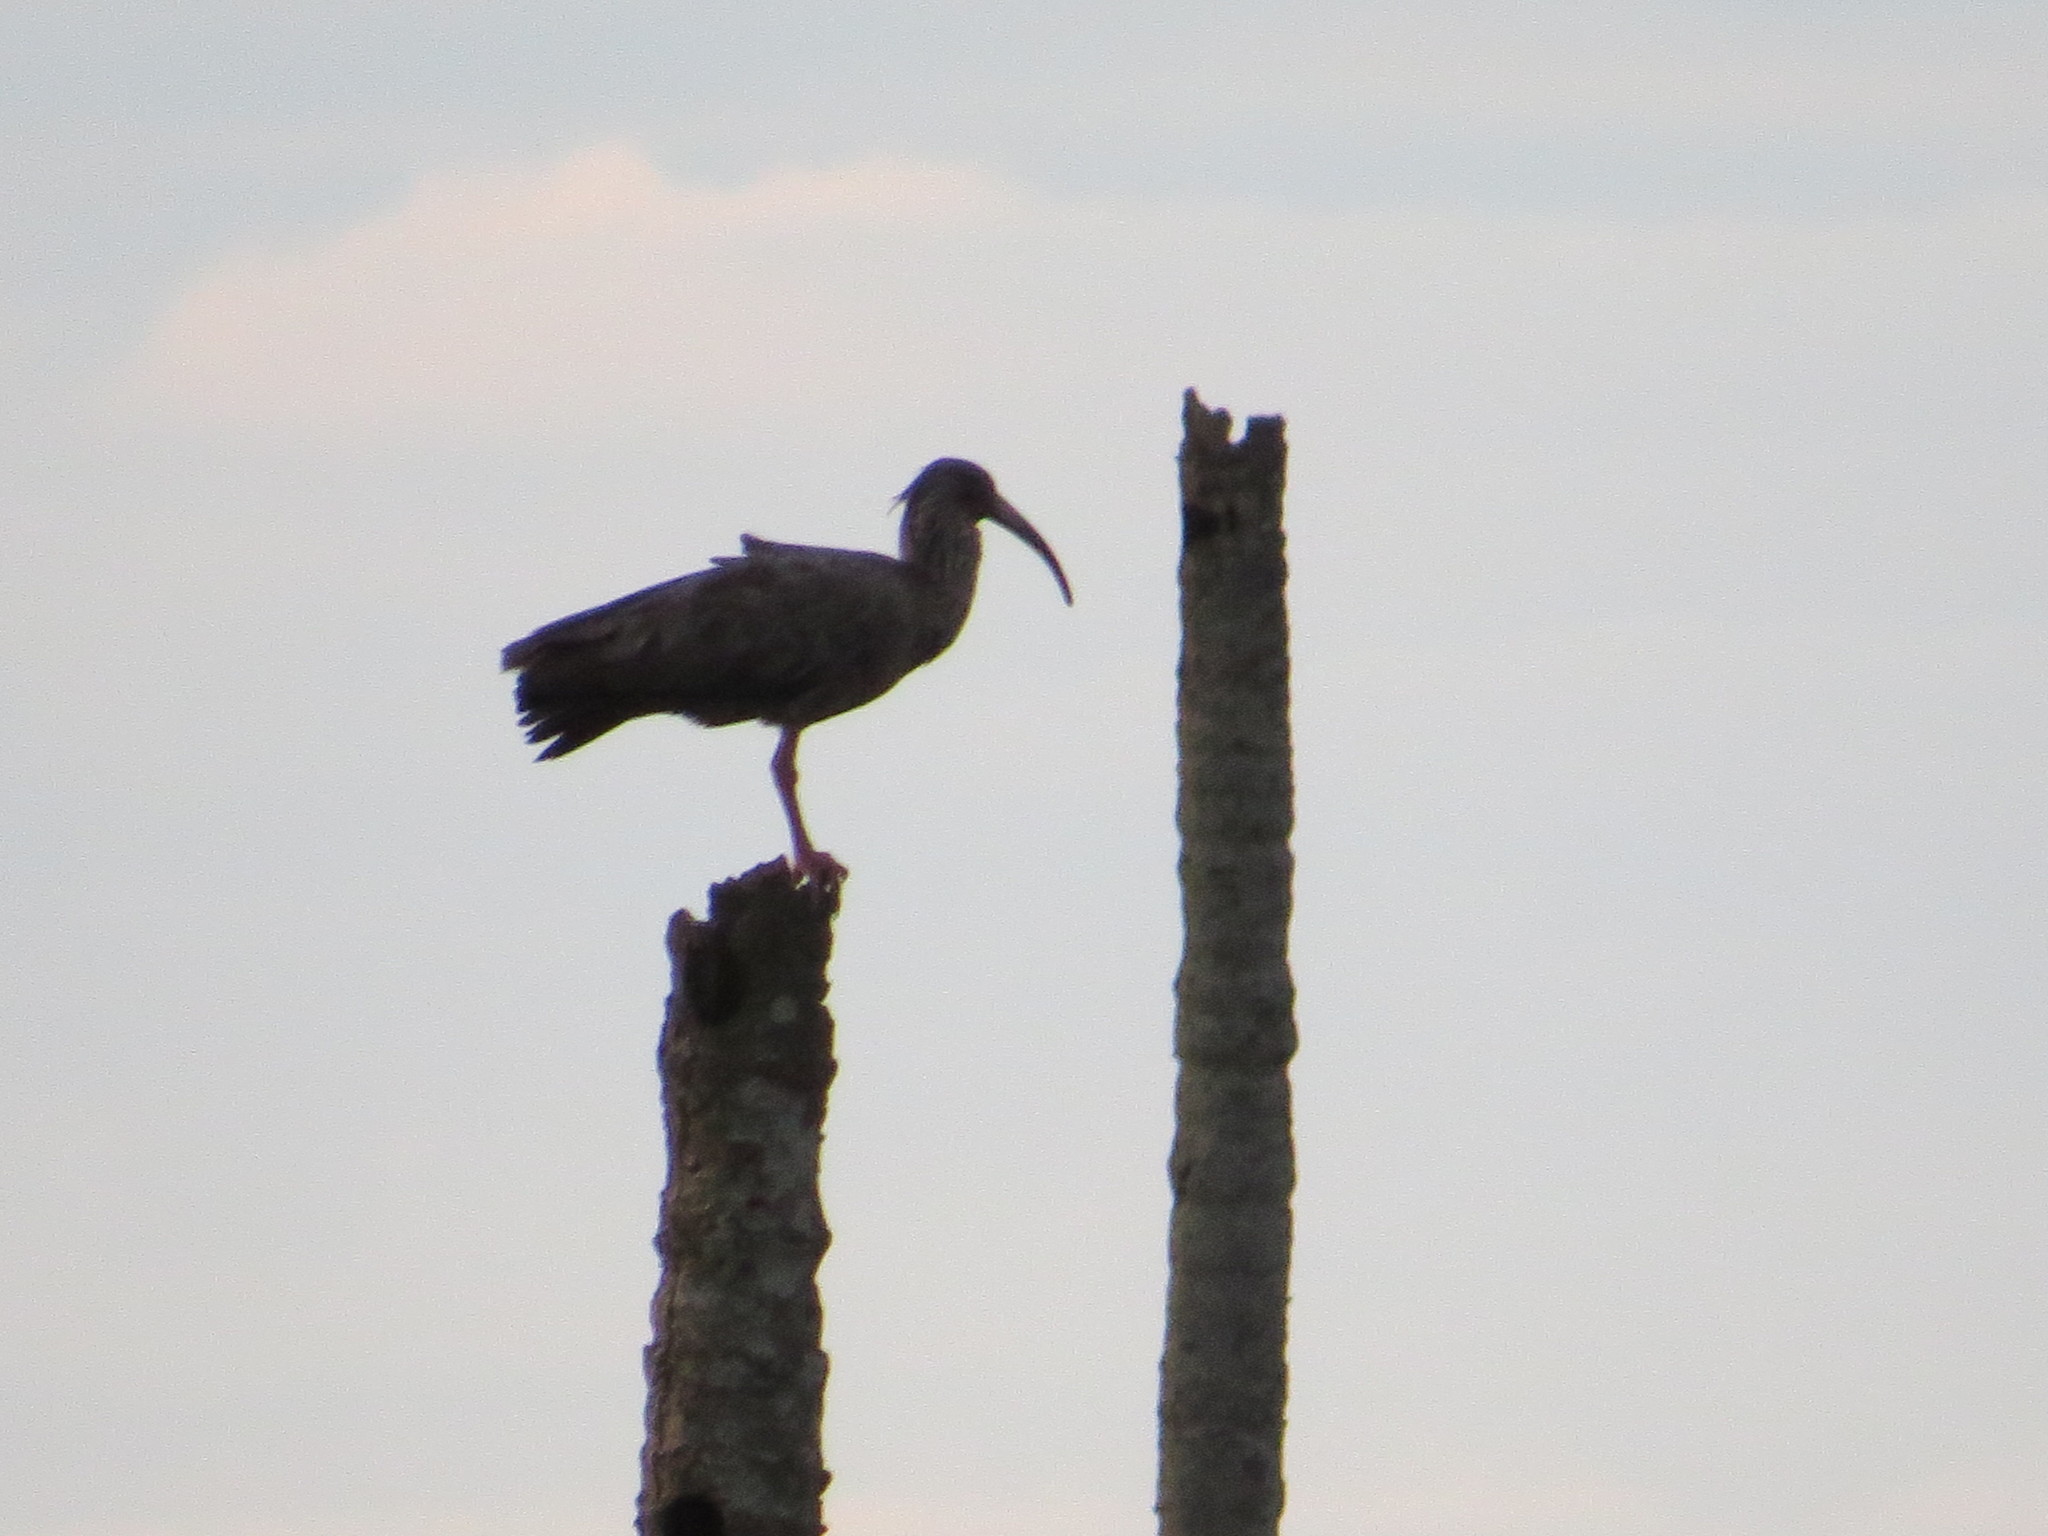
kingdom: Animalia
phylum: Chordata
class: Aves
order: Pelecaniformes
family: Threskiornithidae
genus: Theristicus
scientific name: Theristicus caerulescens
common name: Plumbeous ibis
